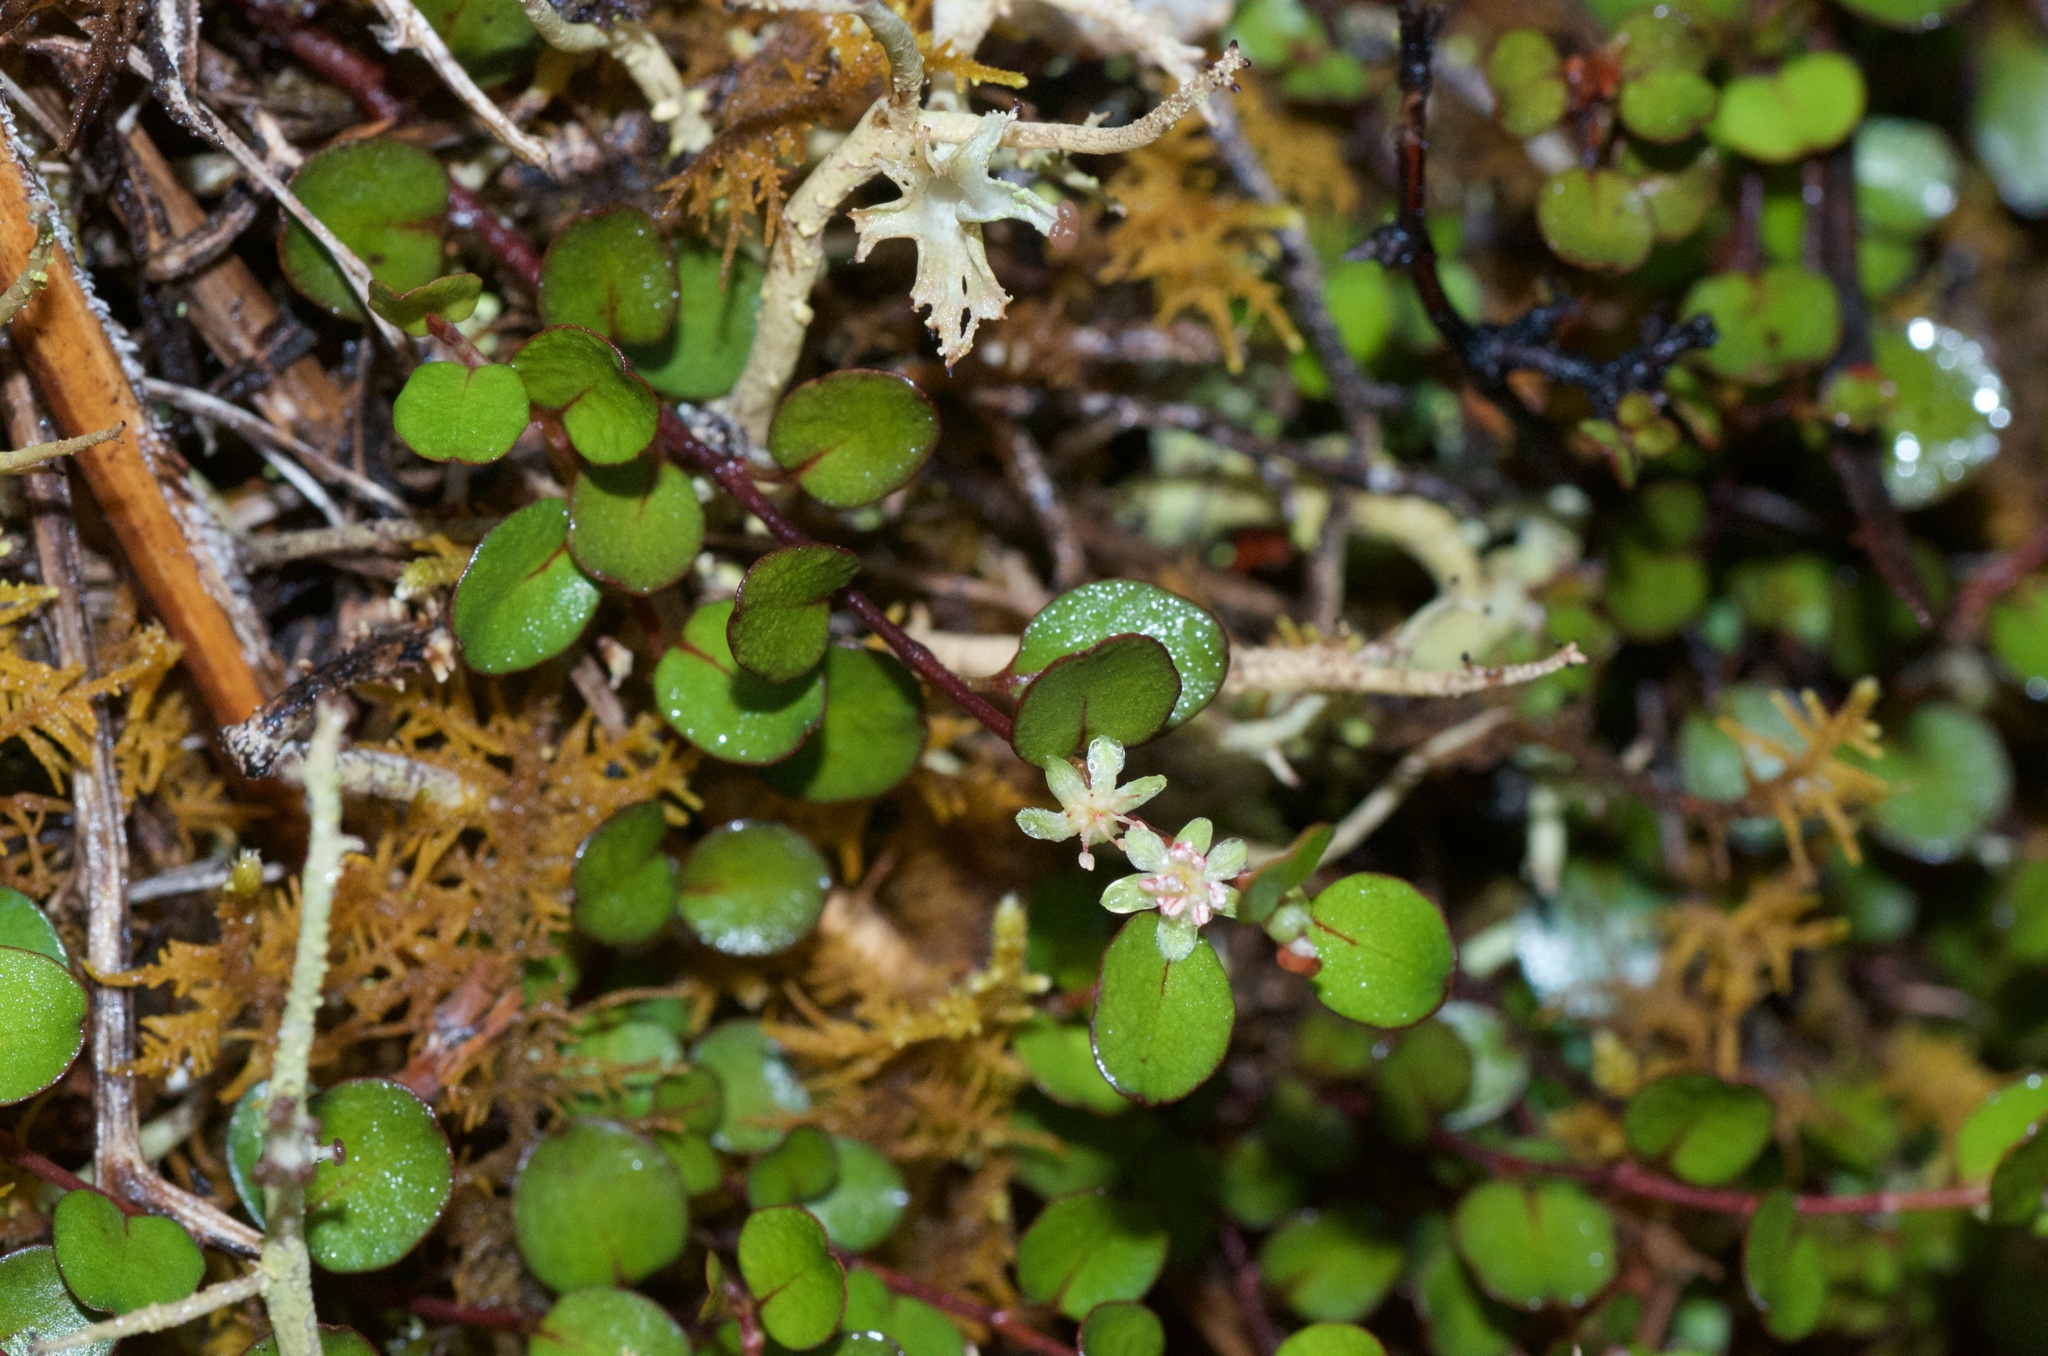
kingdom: Plantae
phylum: Tracheophyta
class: Magnoliopsida
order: Caryophyllales
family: Polygonaceae
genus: Muehlenbeckia
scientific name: Muehlenbeckia axillaris
